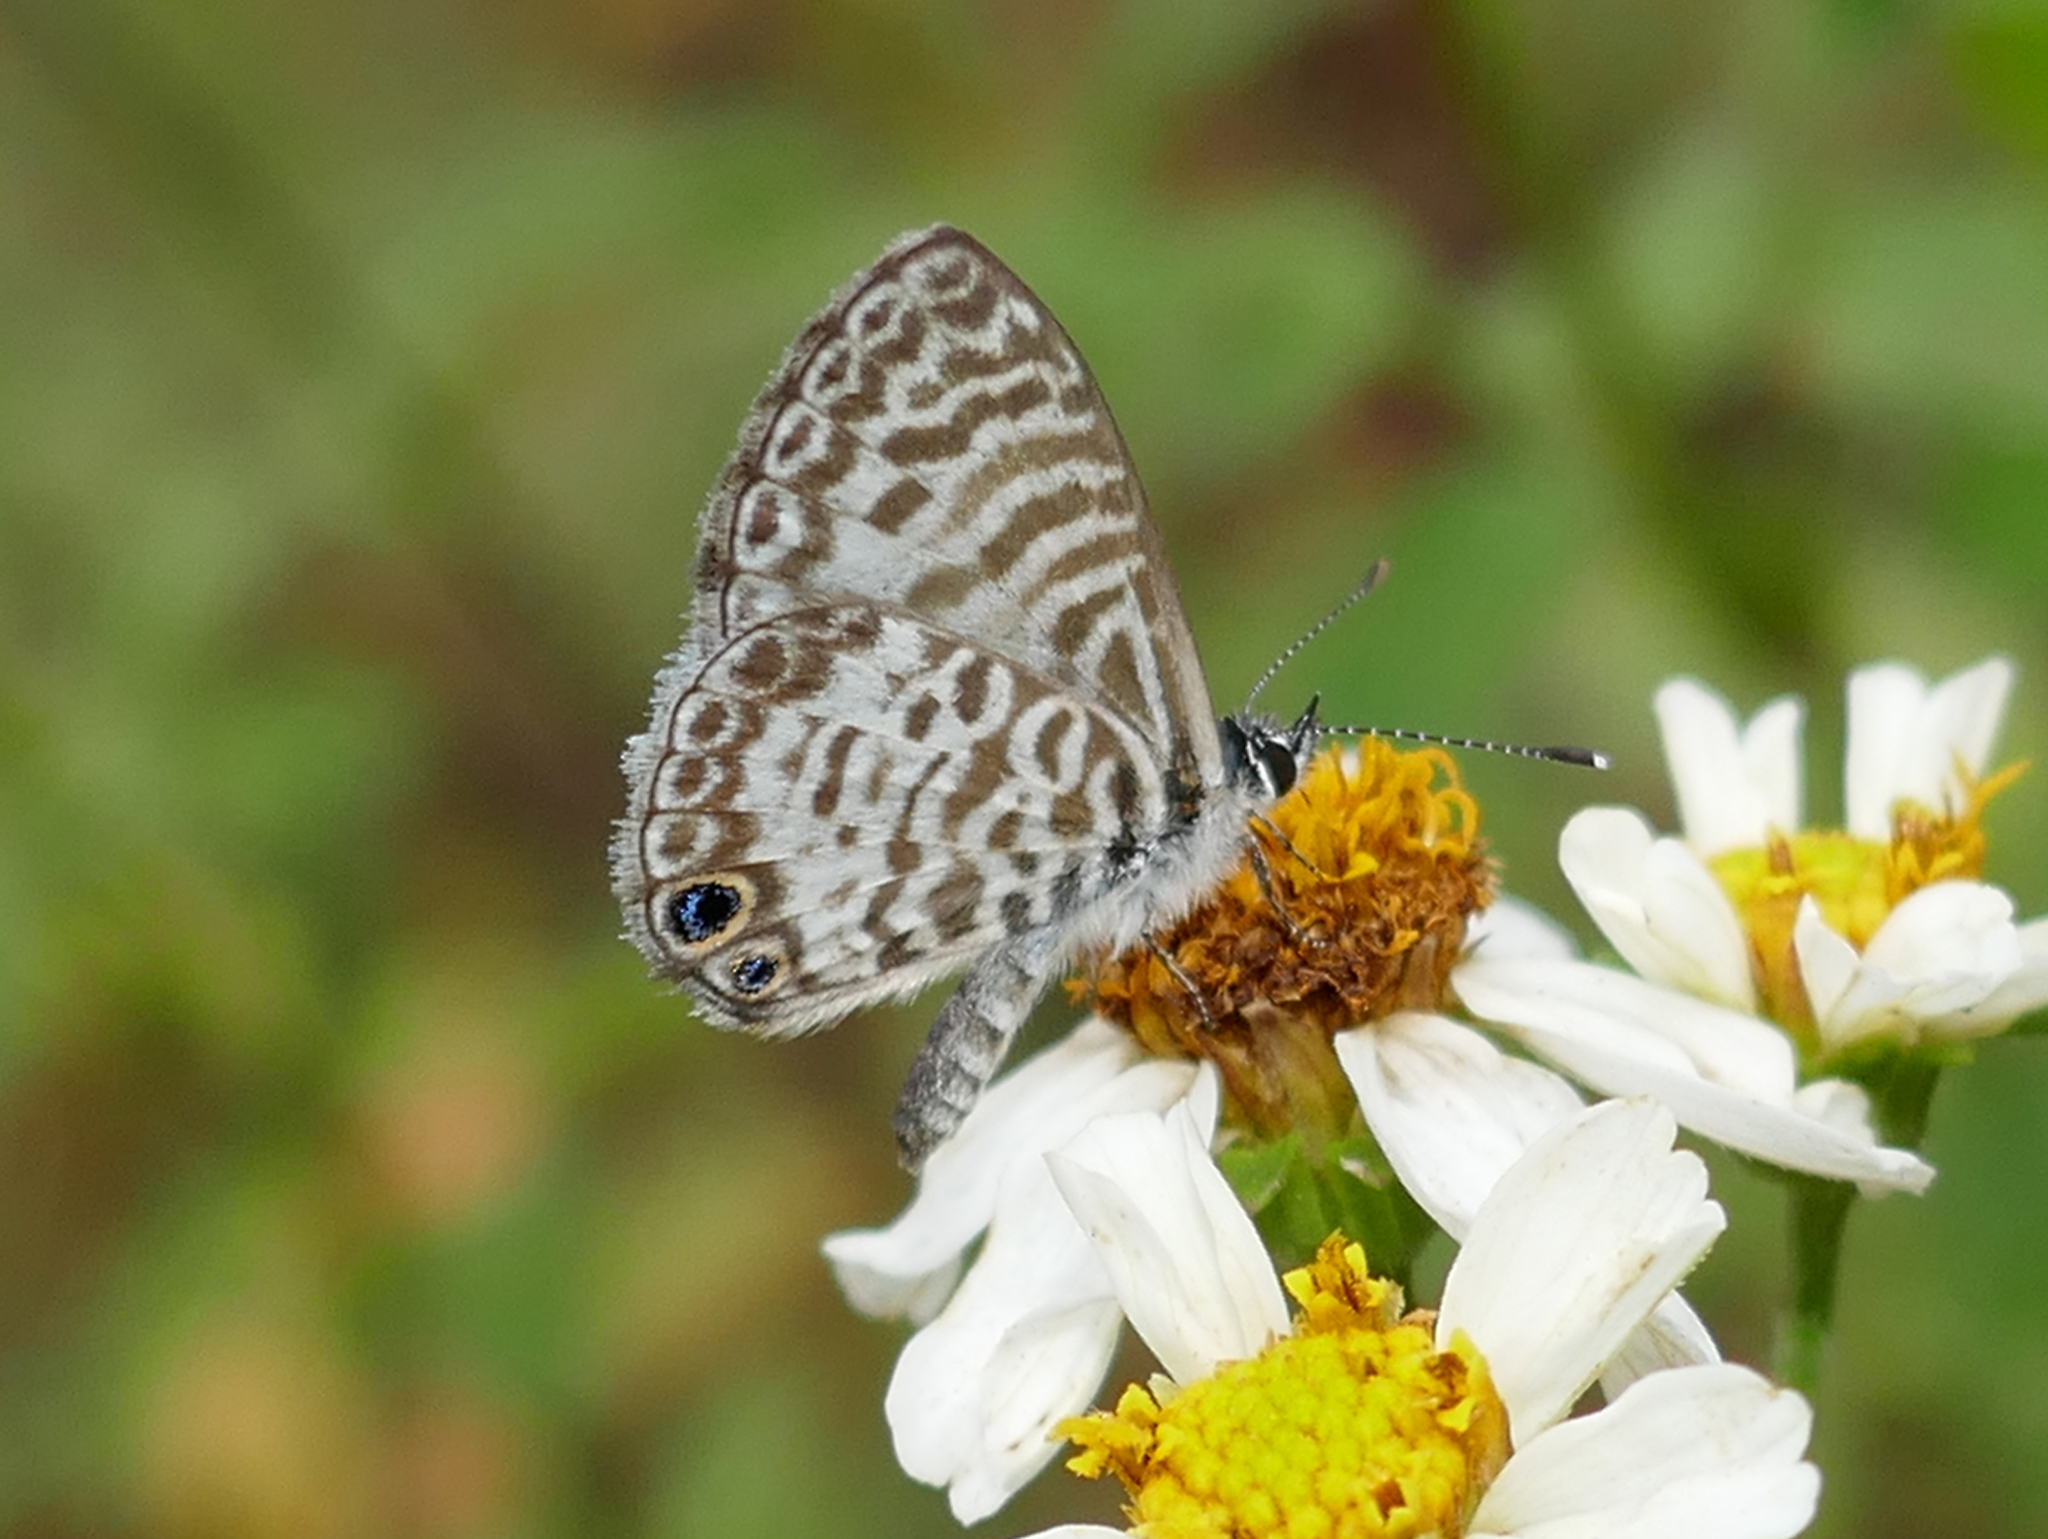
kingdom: Animalia
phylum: Arthropoda
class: Insecta
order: Lepidoptera
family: Lycaenidae
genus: Leptotes
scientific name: Leptotes cassius
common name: Cassius blue
